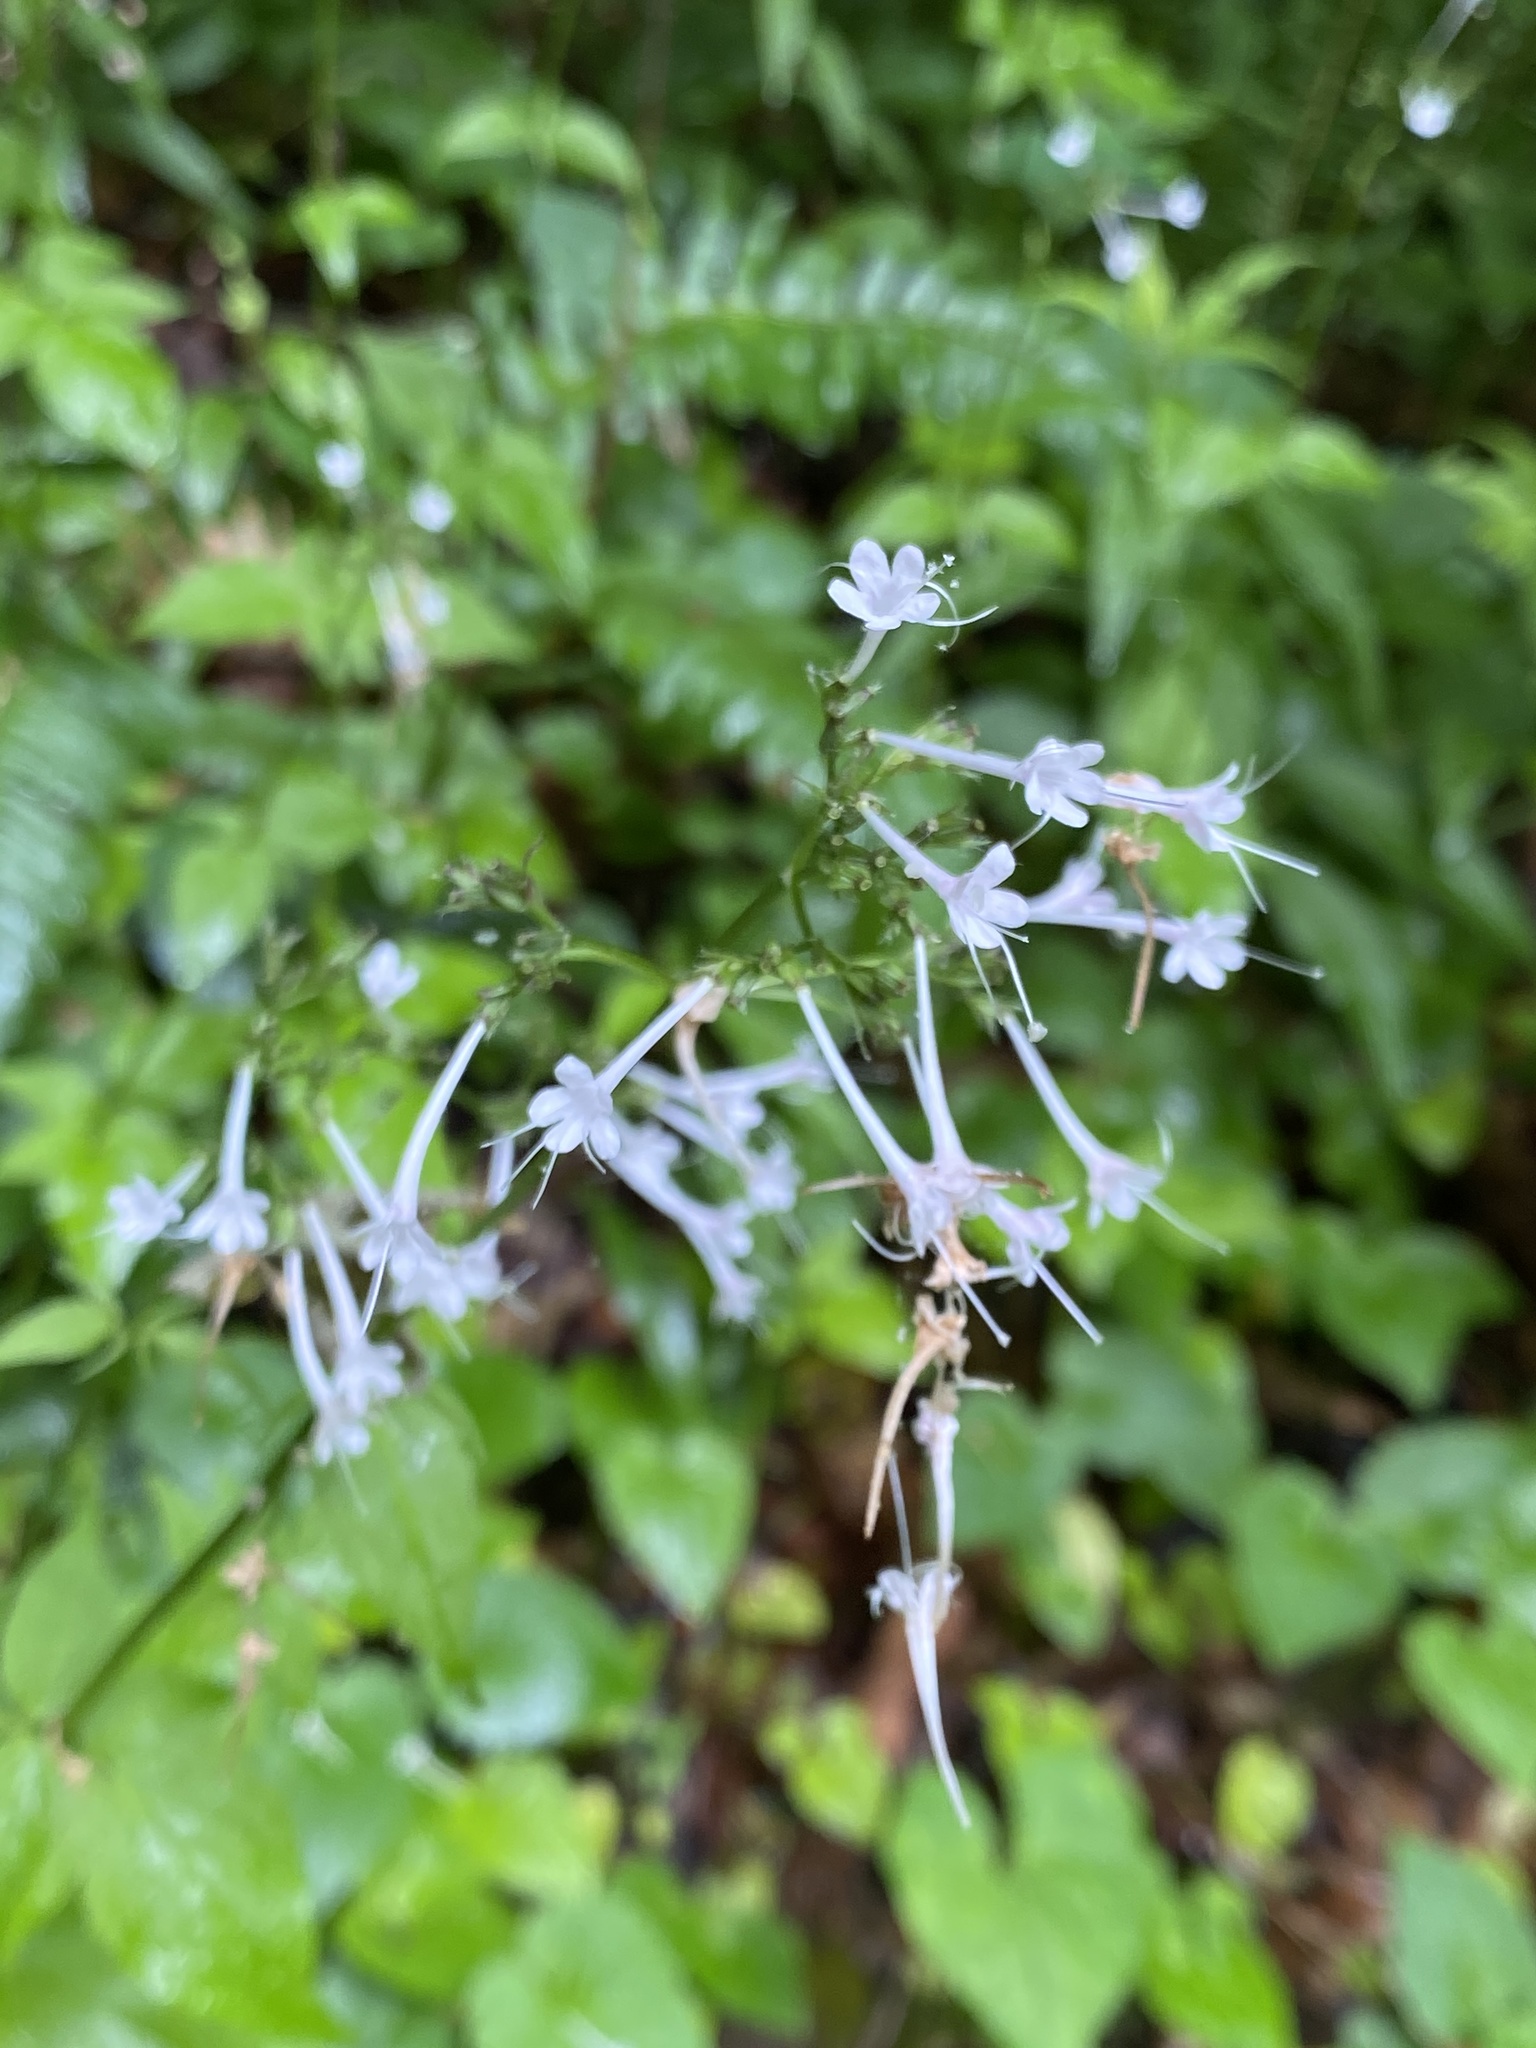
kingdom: Plantae
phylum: Tracheophyta
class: Magnoliopsida
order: Dipsacales
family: Caprifoliaceae
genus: Valeriana
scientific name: Valeriana pauciflora
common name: Long-tube valeriana
